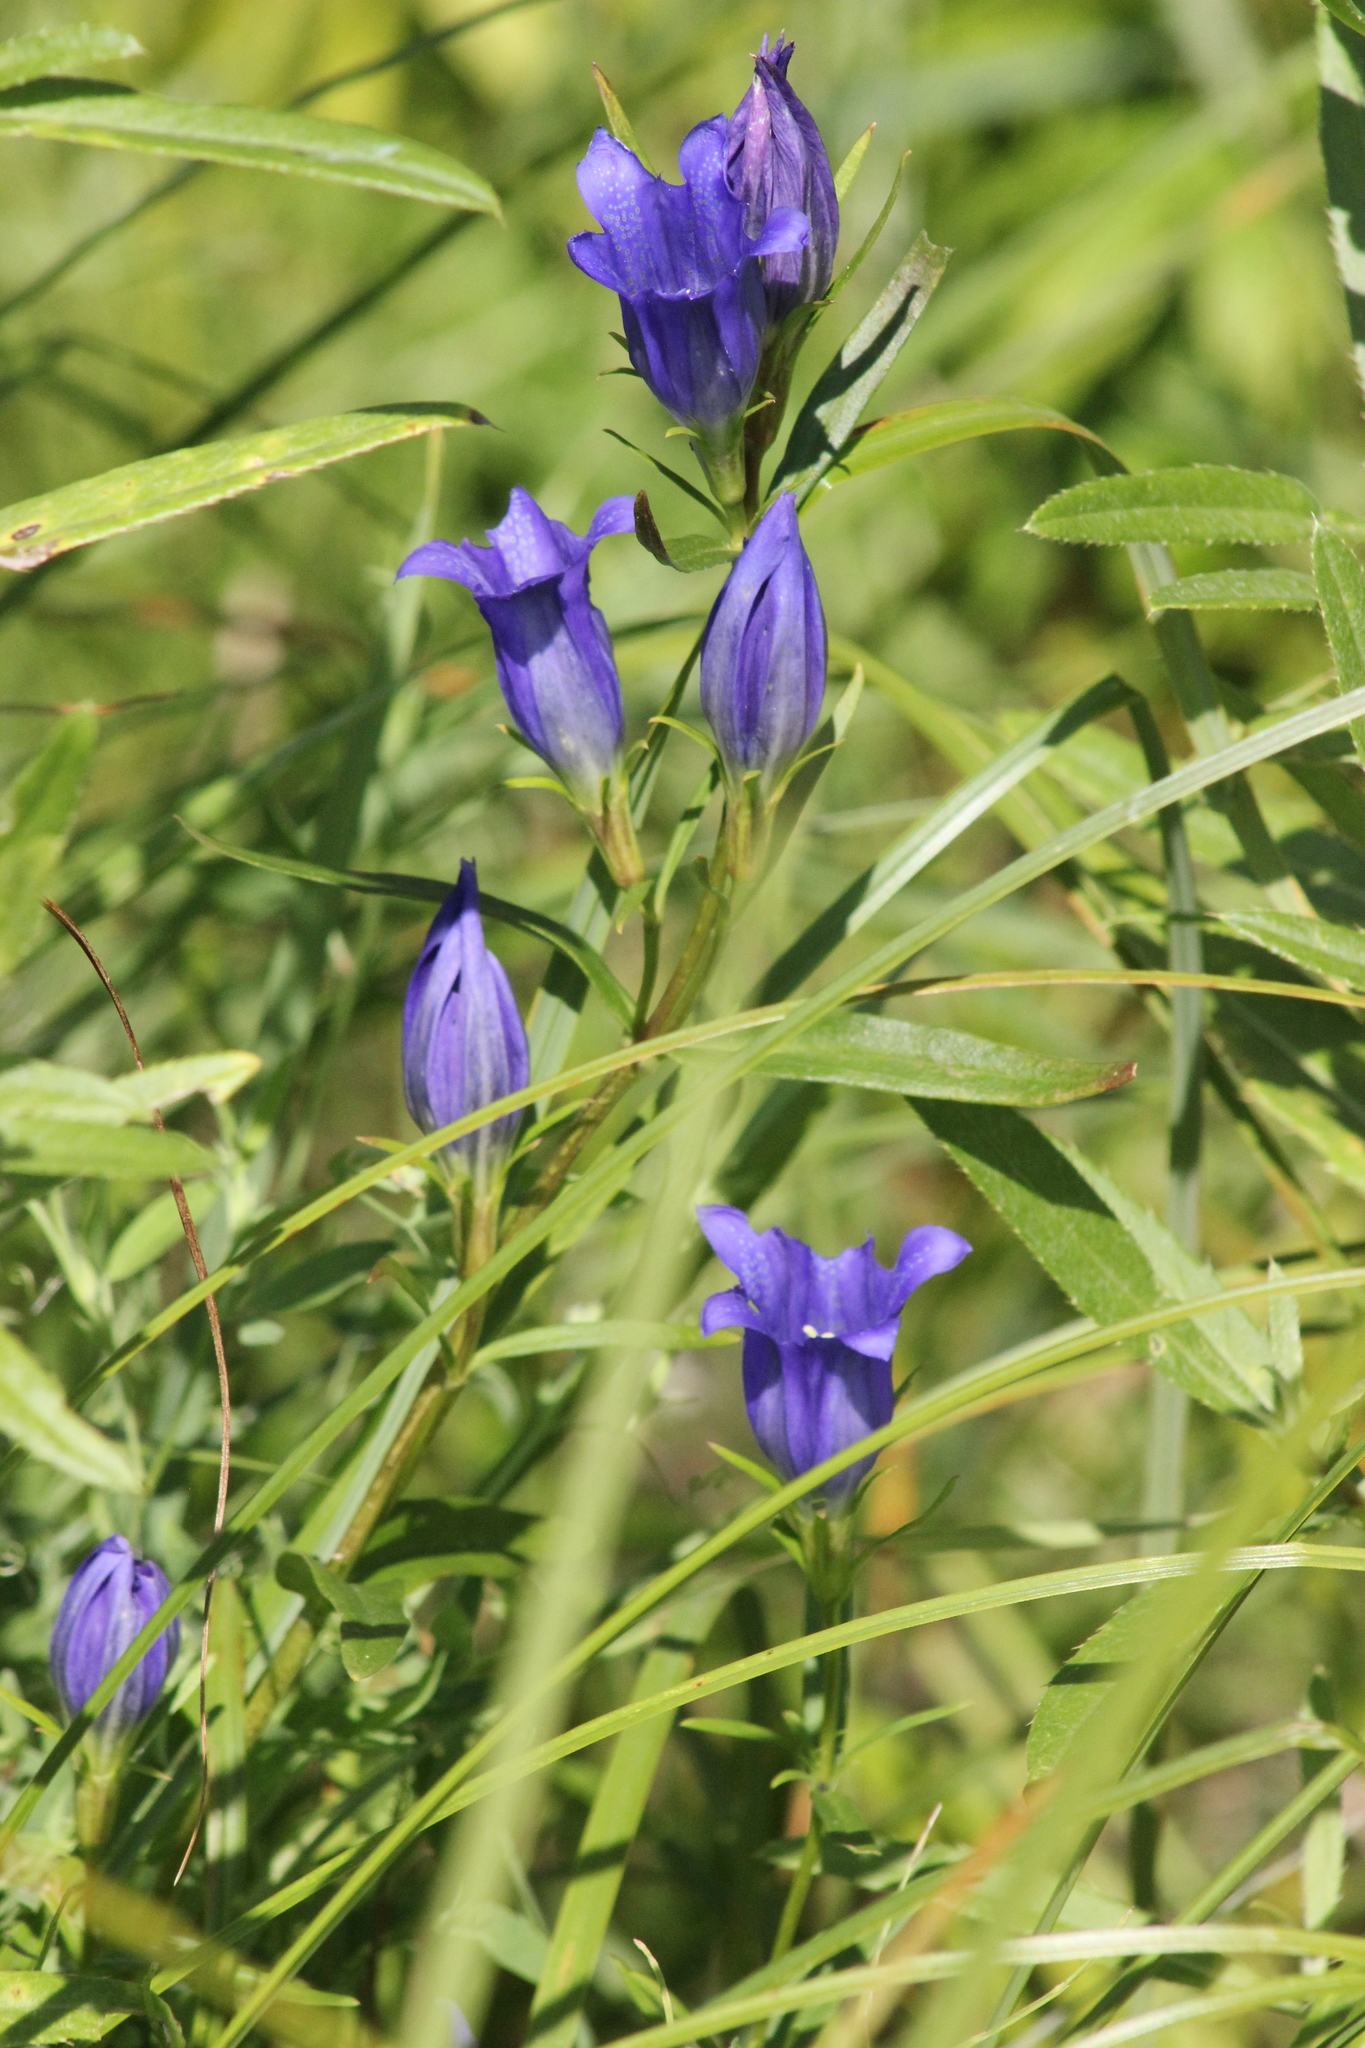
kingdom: Plantae
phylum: Tracheophyta
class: Magnoliopsida
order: Gentianales
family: Gentianaceae
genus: Gentiana
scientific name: Gentiana pneumonanthe
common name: Marsh gentian
